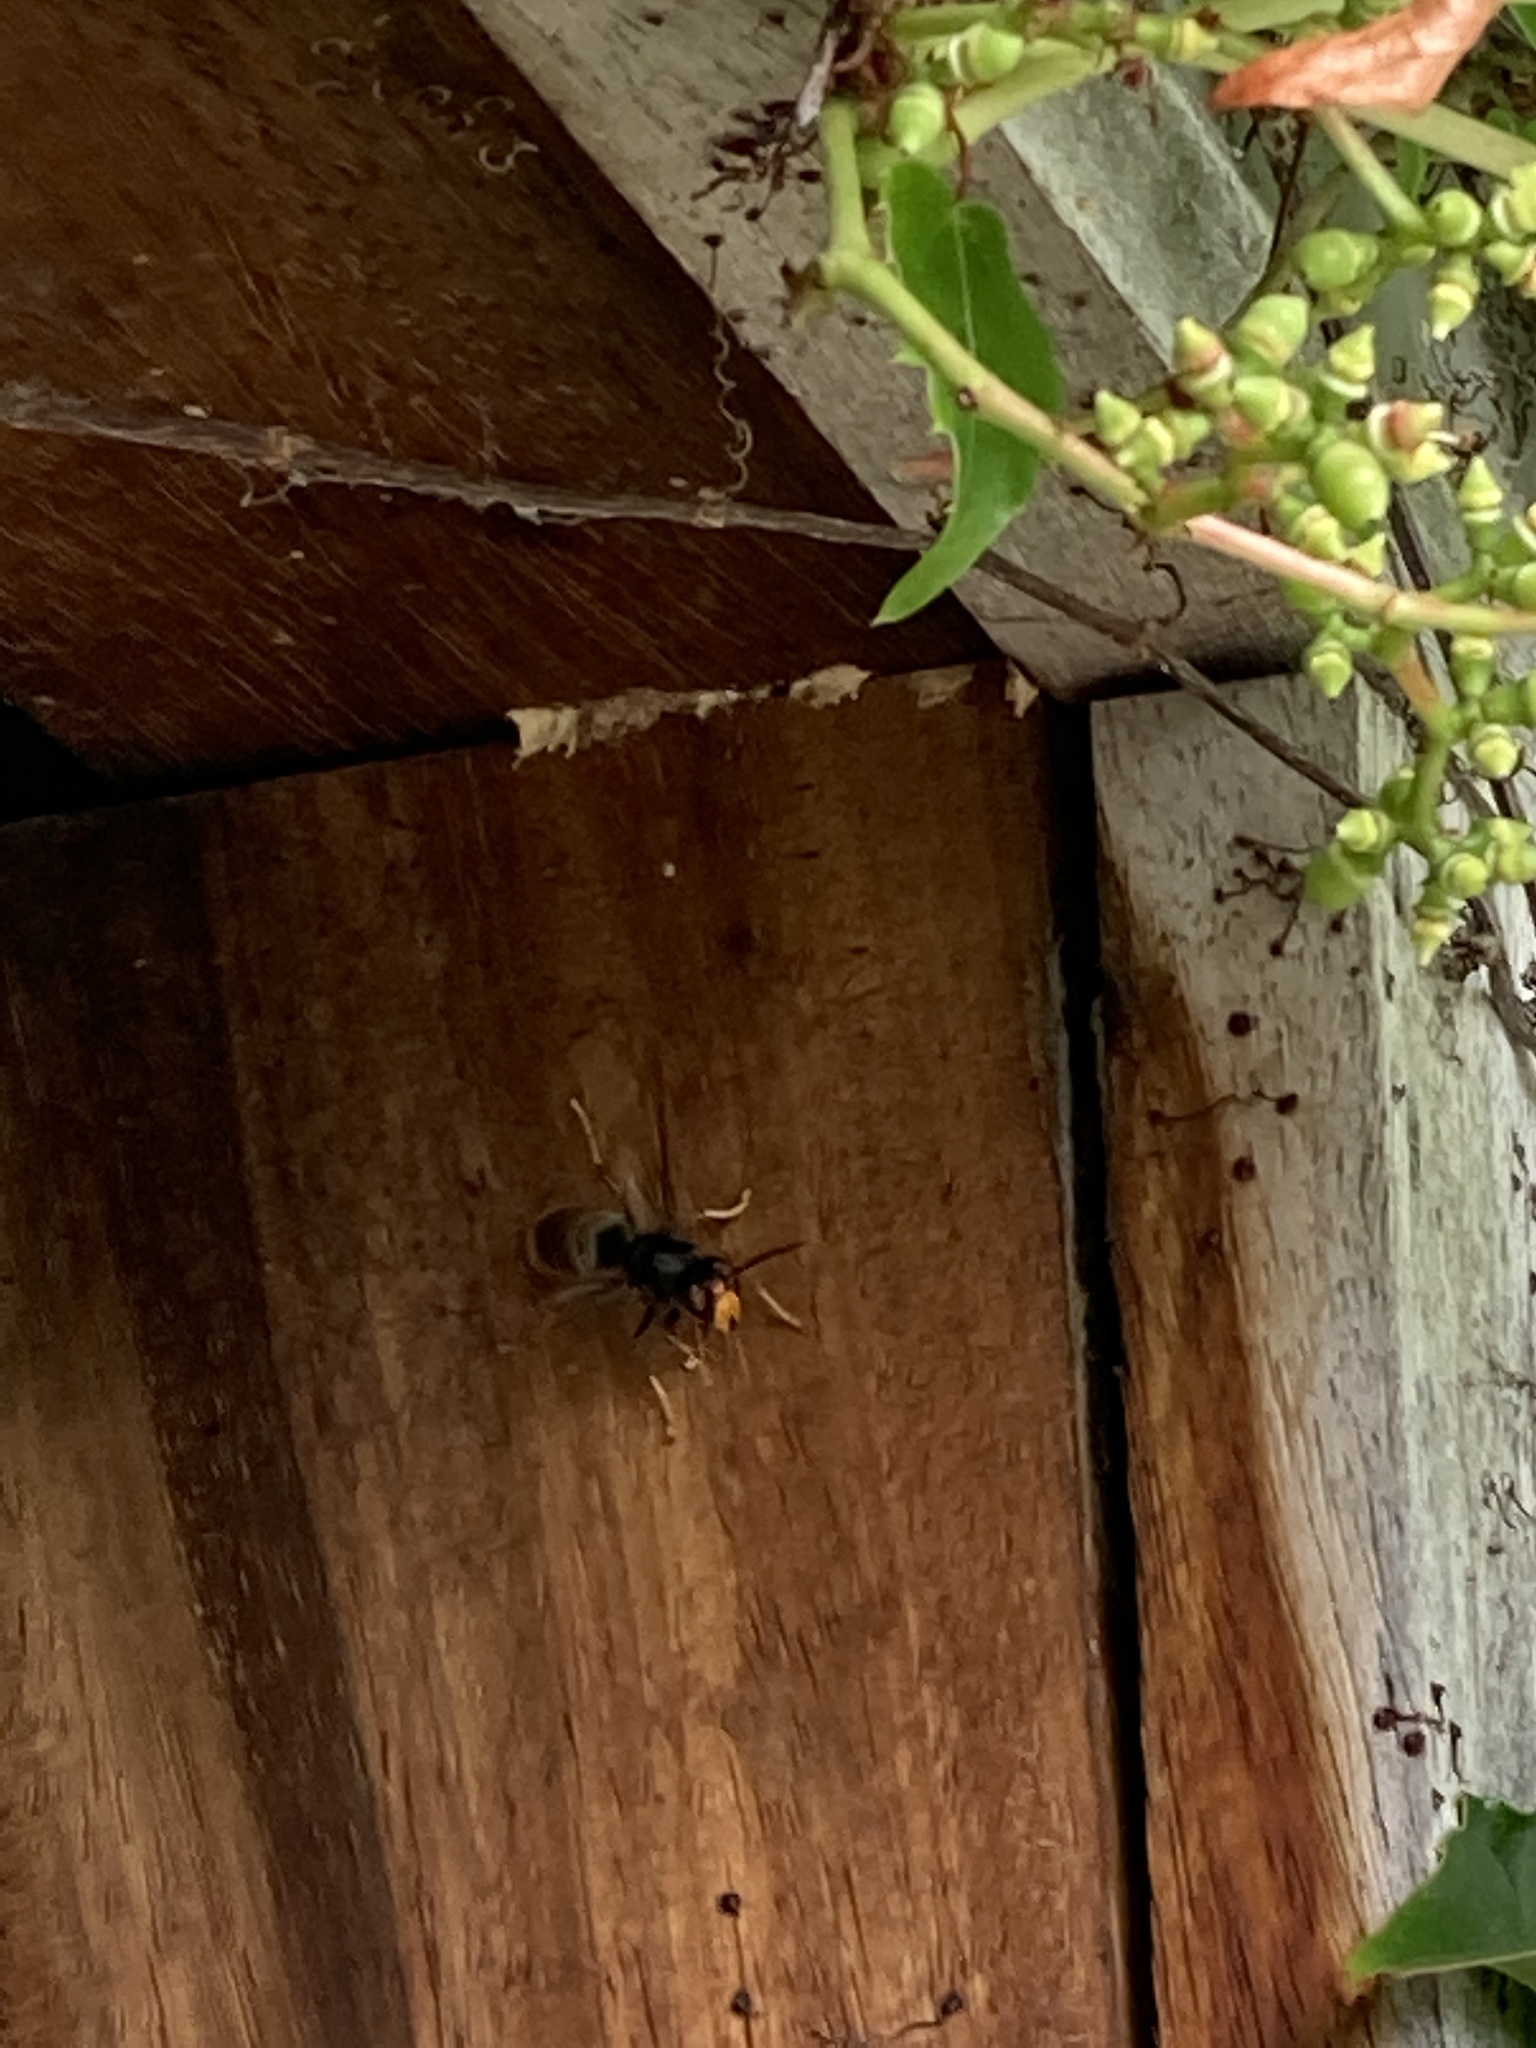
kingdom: Animalia
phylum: Arthropoda
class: Insecta
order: Hymenoptera
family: Vespidae
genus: Vespa
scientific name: Vespa velutina
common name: Asian hornet
